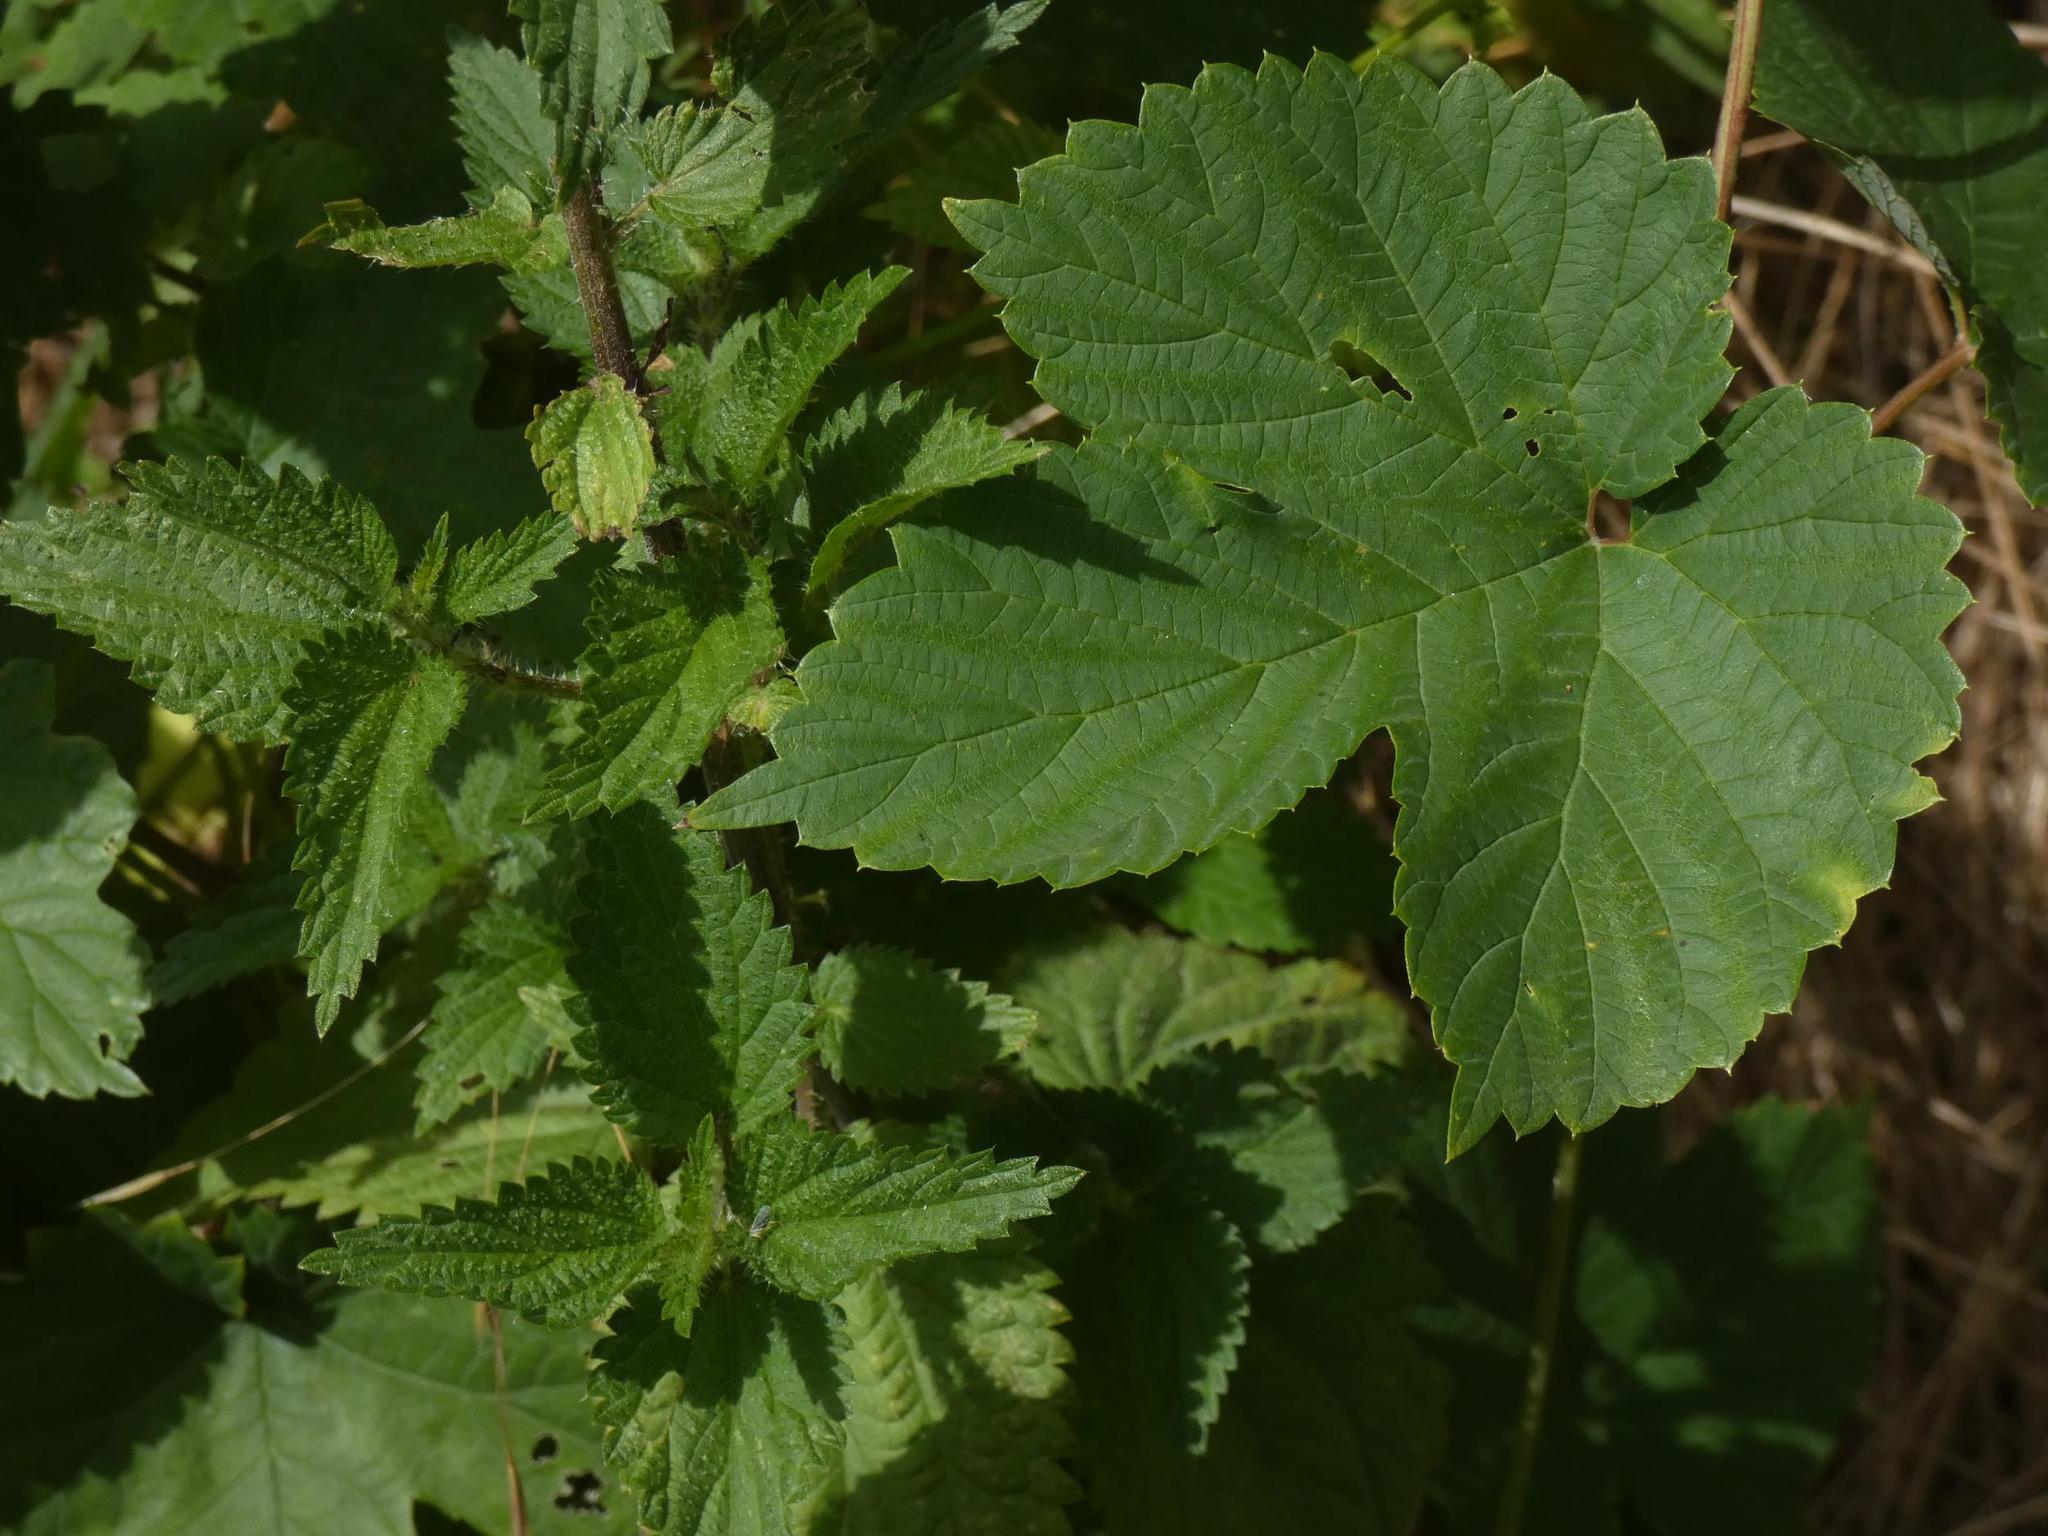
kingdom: Plantae
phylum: Tracheophyta
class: Magnoliopsida
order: Rosales
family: Cannabaceae
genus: Humulus
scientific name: Humulus lupulus
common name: Hop
